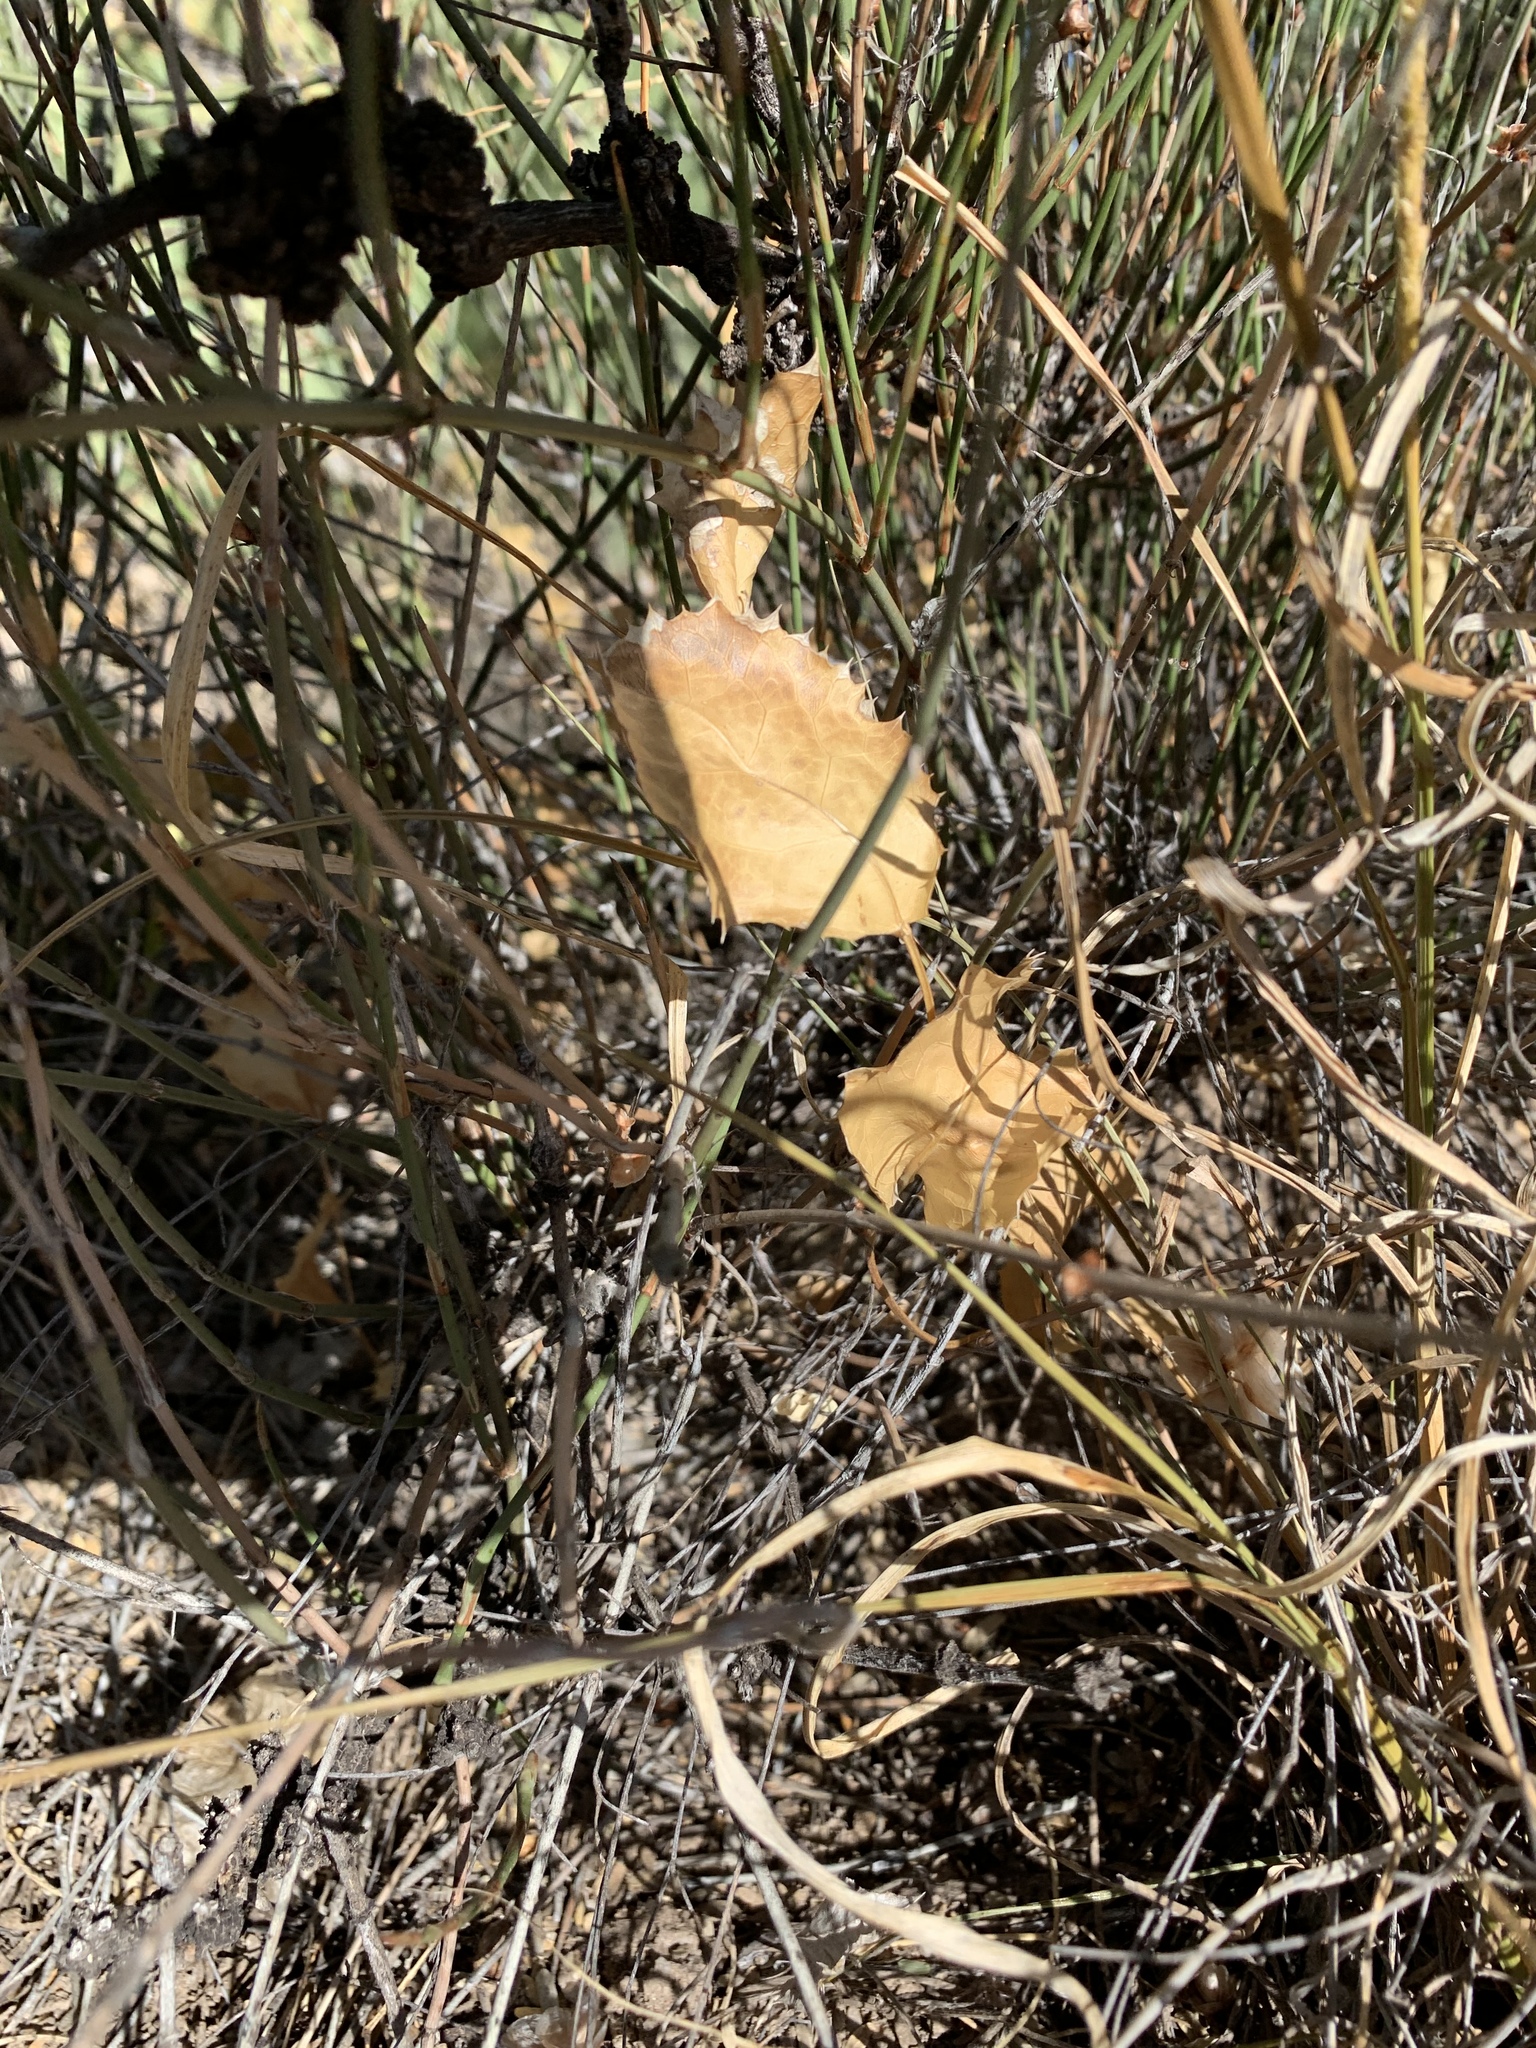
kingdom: Plantae
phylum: Tracheophyta
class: Magnoliopsida
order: Asterales
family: Asteraceae
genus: Acourtia
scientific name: Acourtia nana
